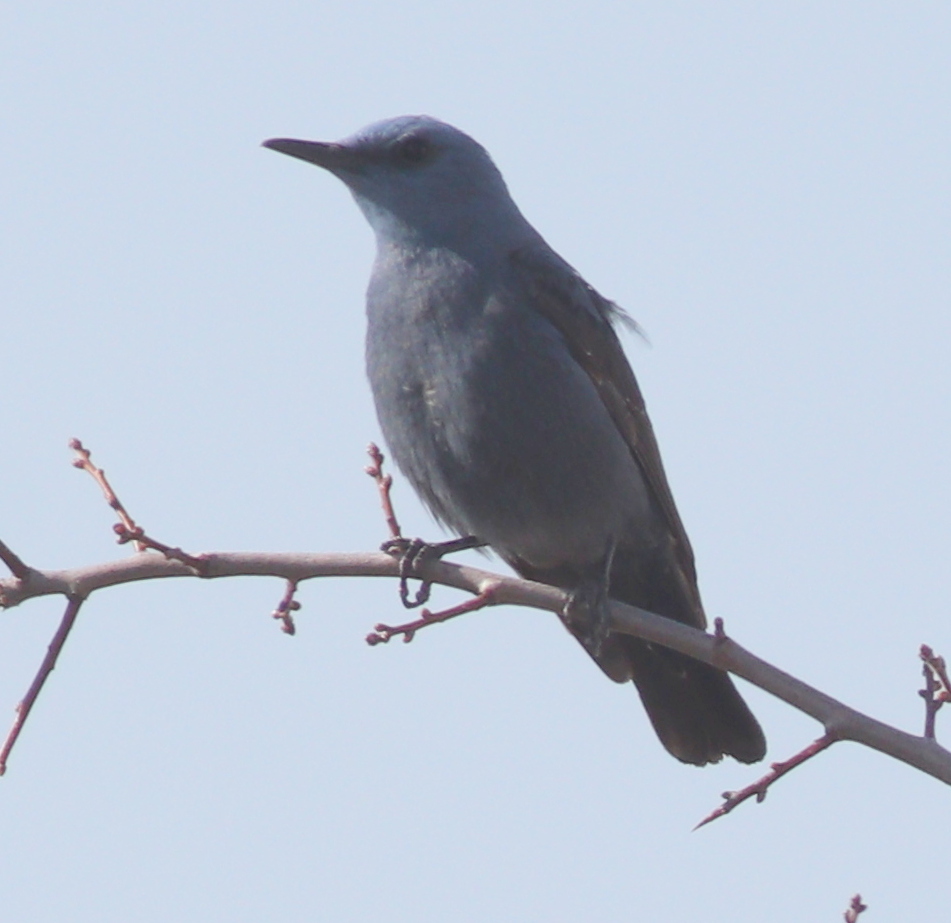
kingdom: Animalia
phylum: Chordata
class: Aves
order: Passeriformes
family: Muscicapidae
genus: Monticola
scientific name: Monticola solitarius
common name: Blue rock thrush
